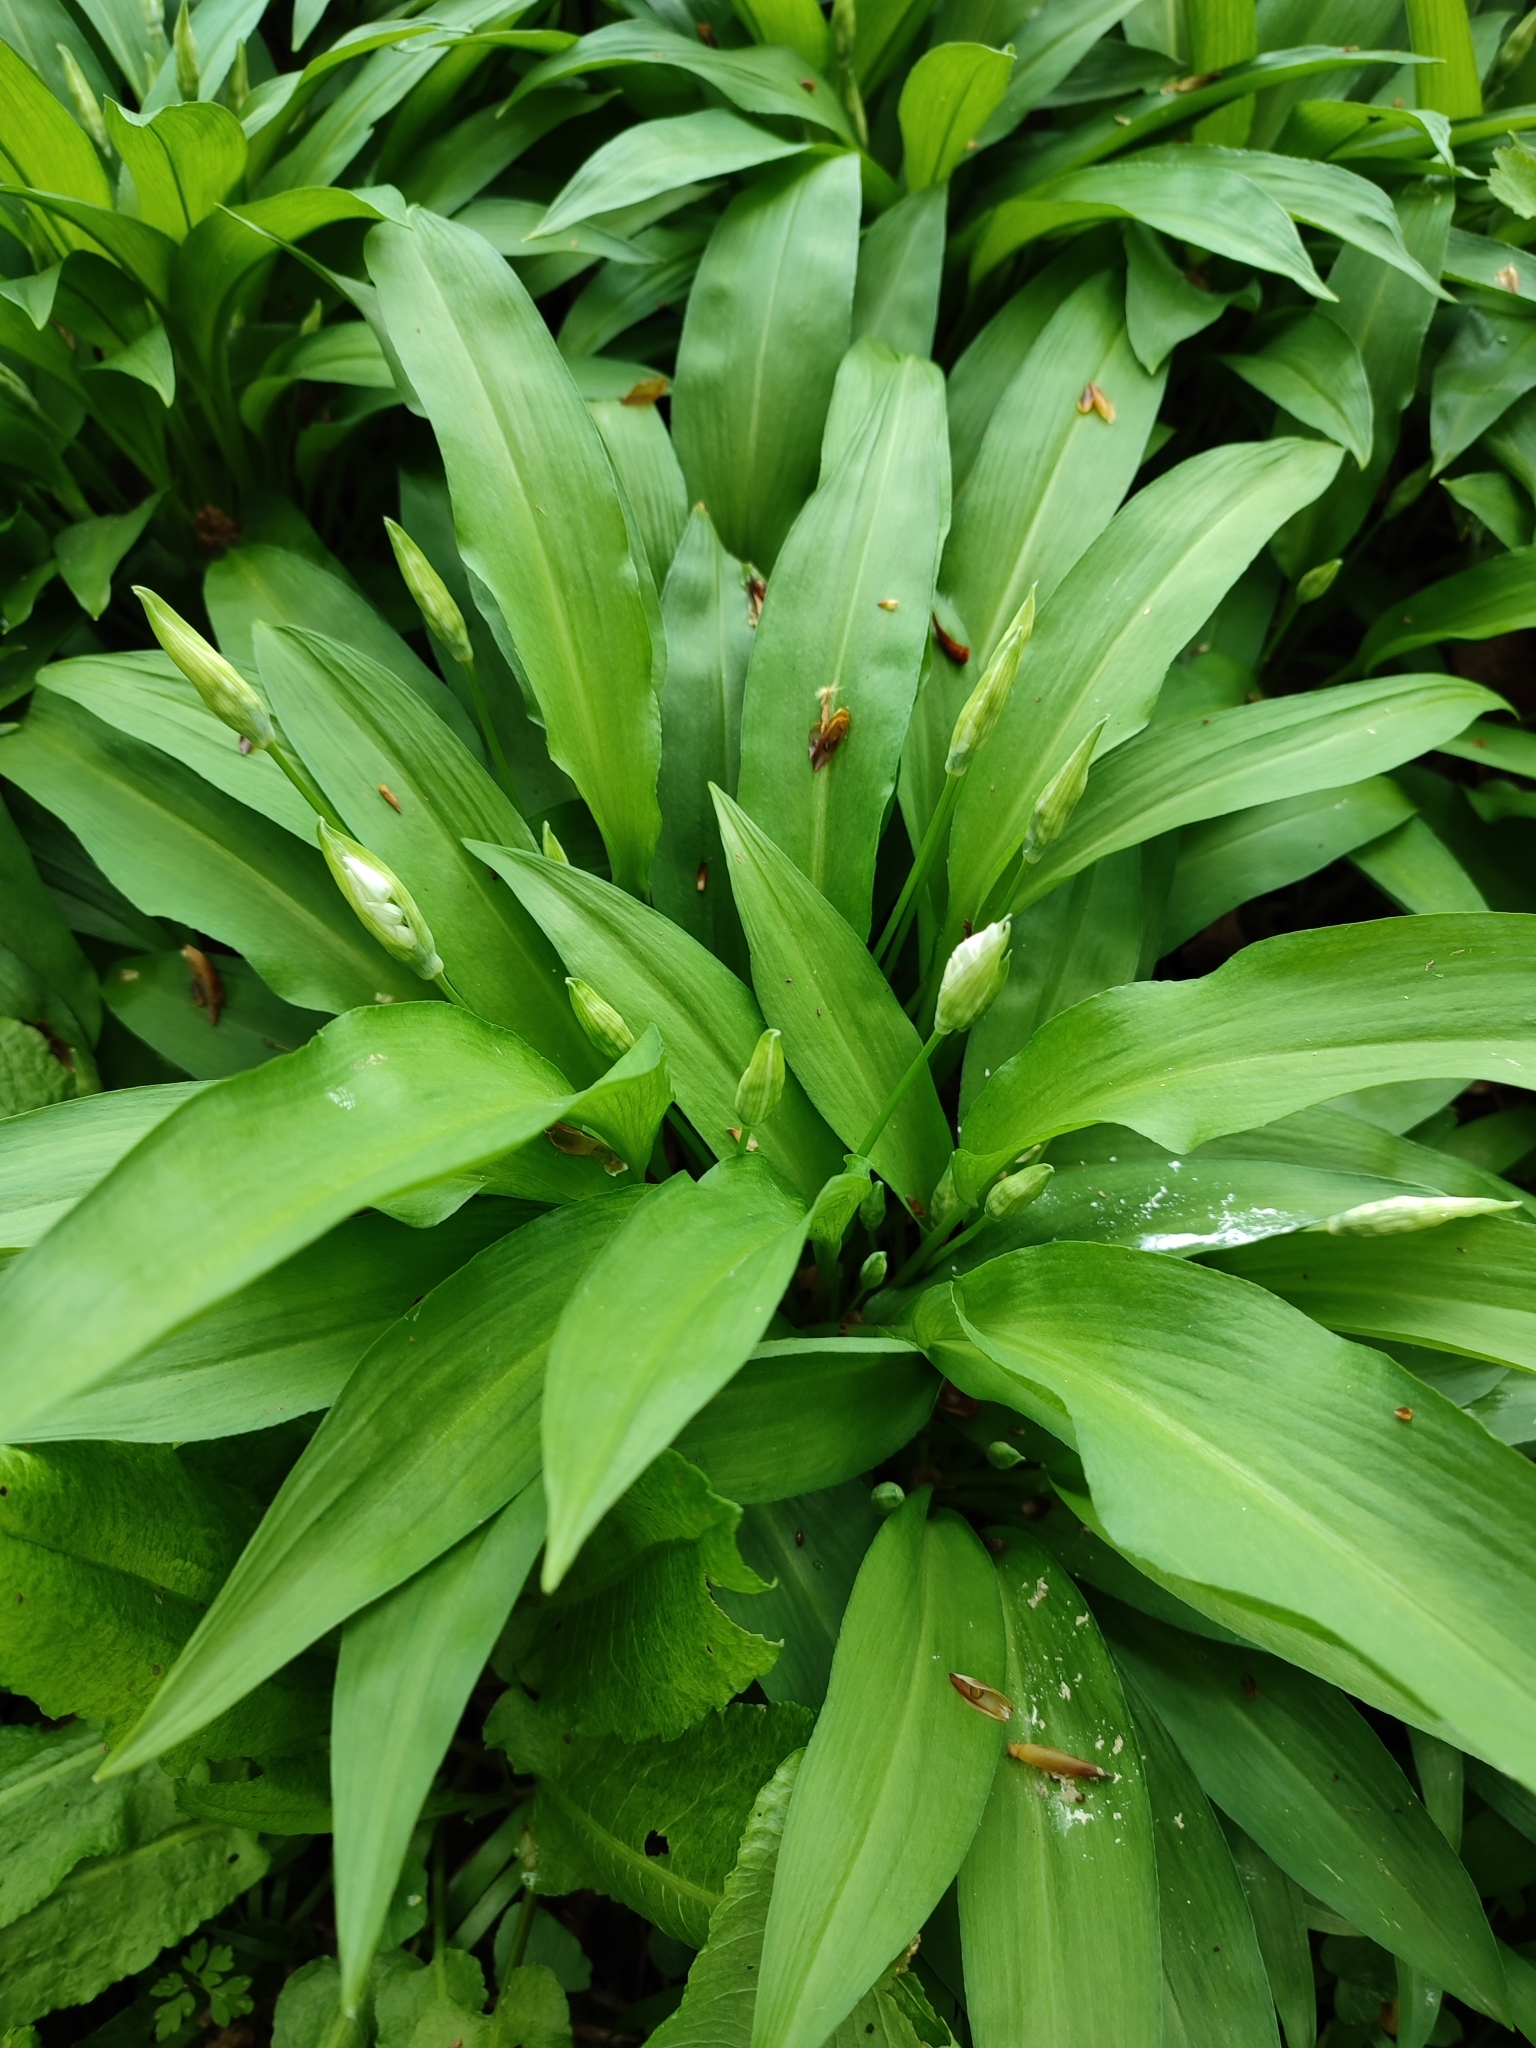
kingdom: Plantae
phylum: Tracheophyta
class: Liliopsida
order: Asparagales
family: Amaryllidaceae
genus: Allium
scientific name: Allium ursinum
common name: Ramsons
